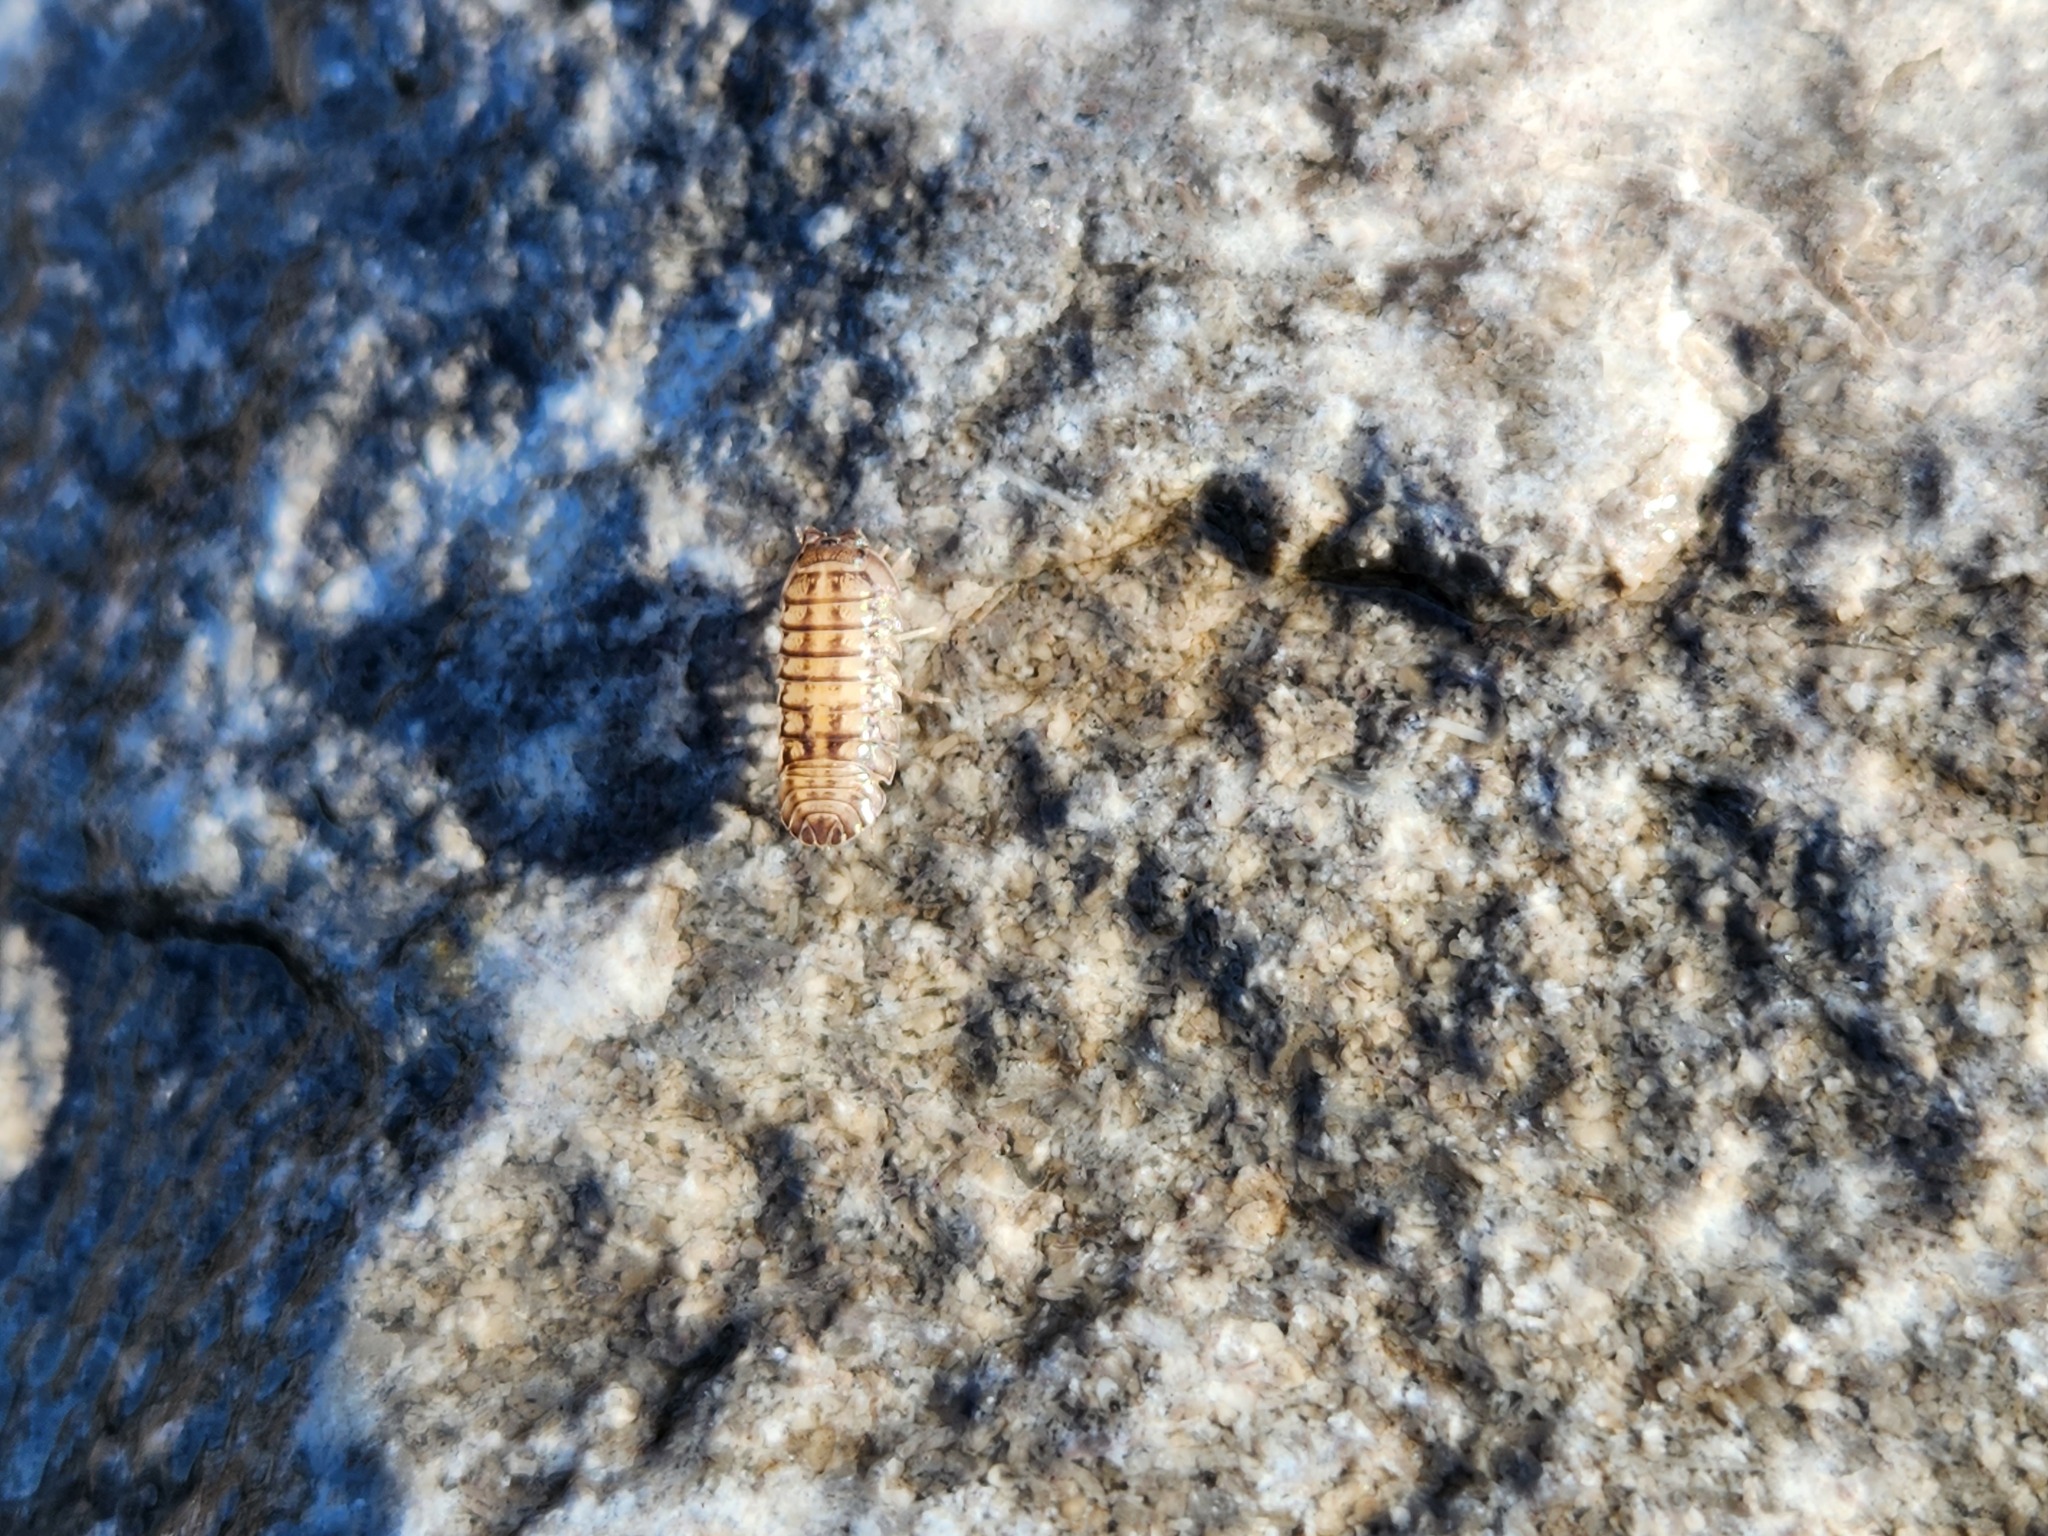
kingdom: Animalia
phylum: Arthropoda
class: Malacostraca
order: Isopoda
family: Armadillidiidae
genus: Armadillidium
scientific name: Armadillidium nasatum
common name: Isopod
